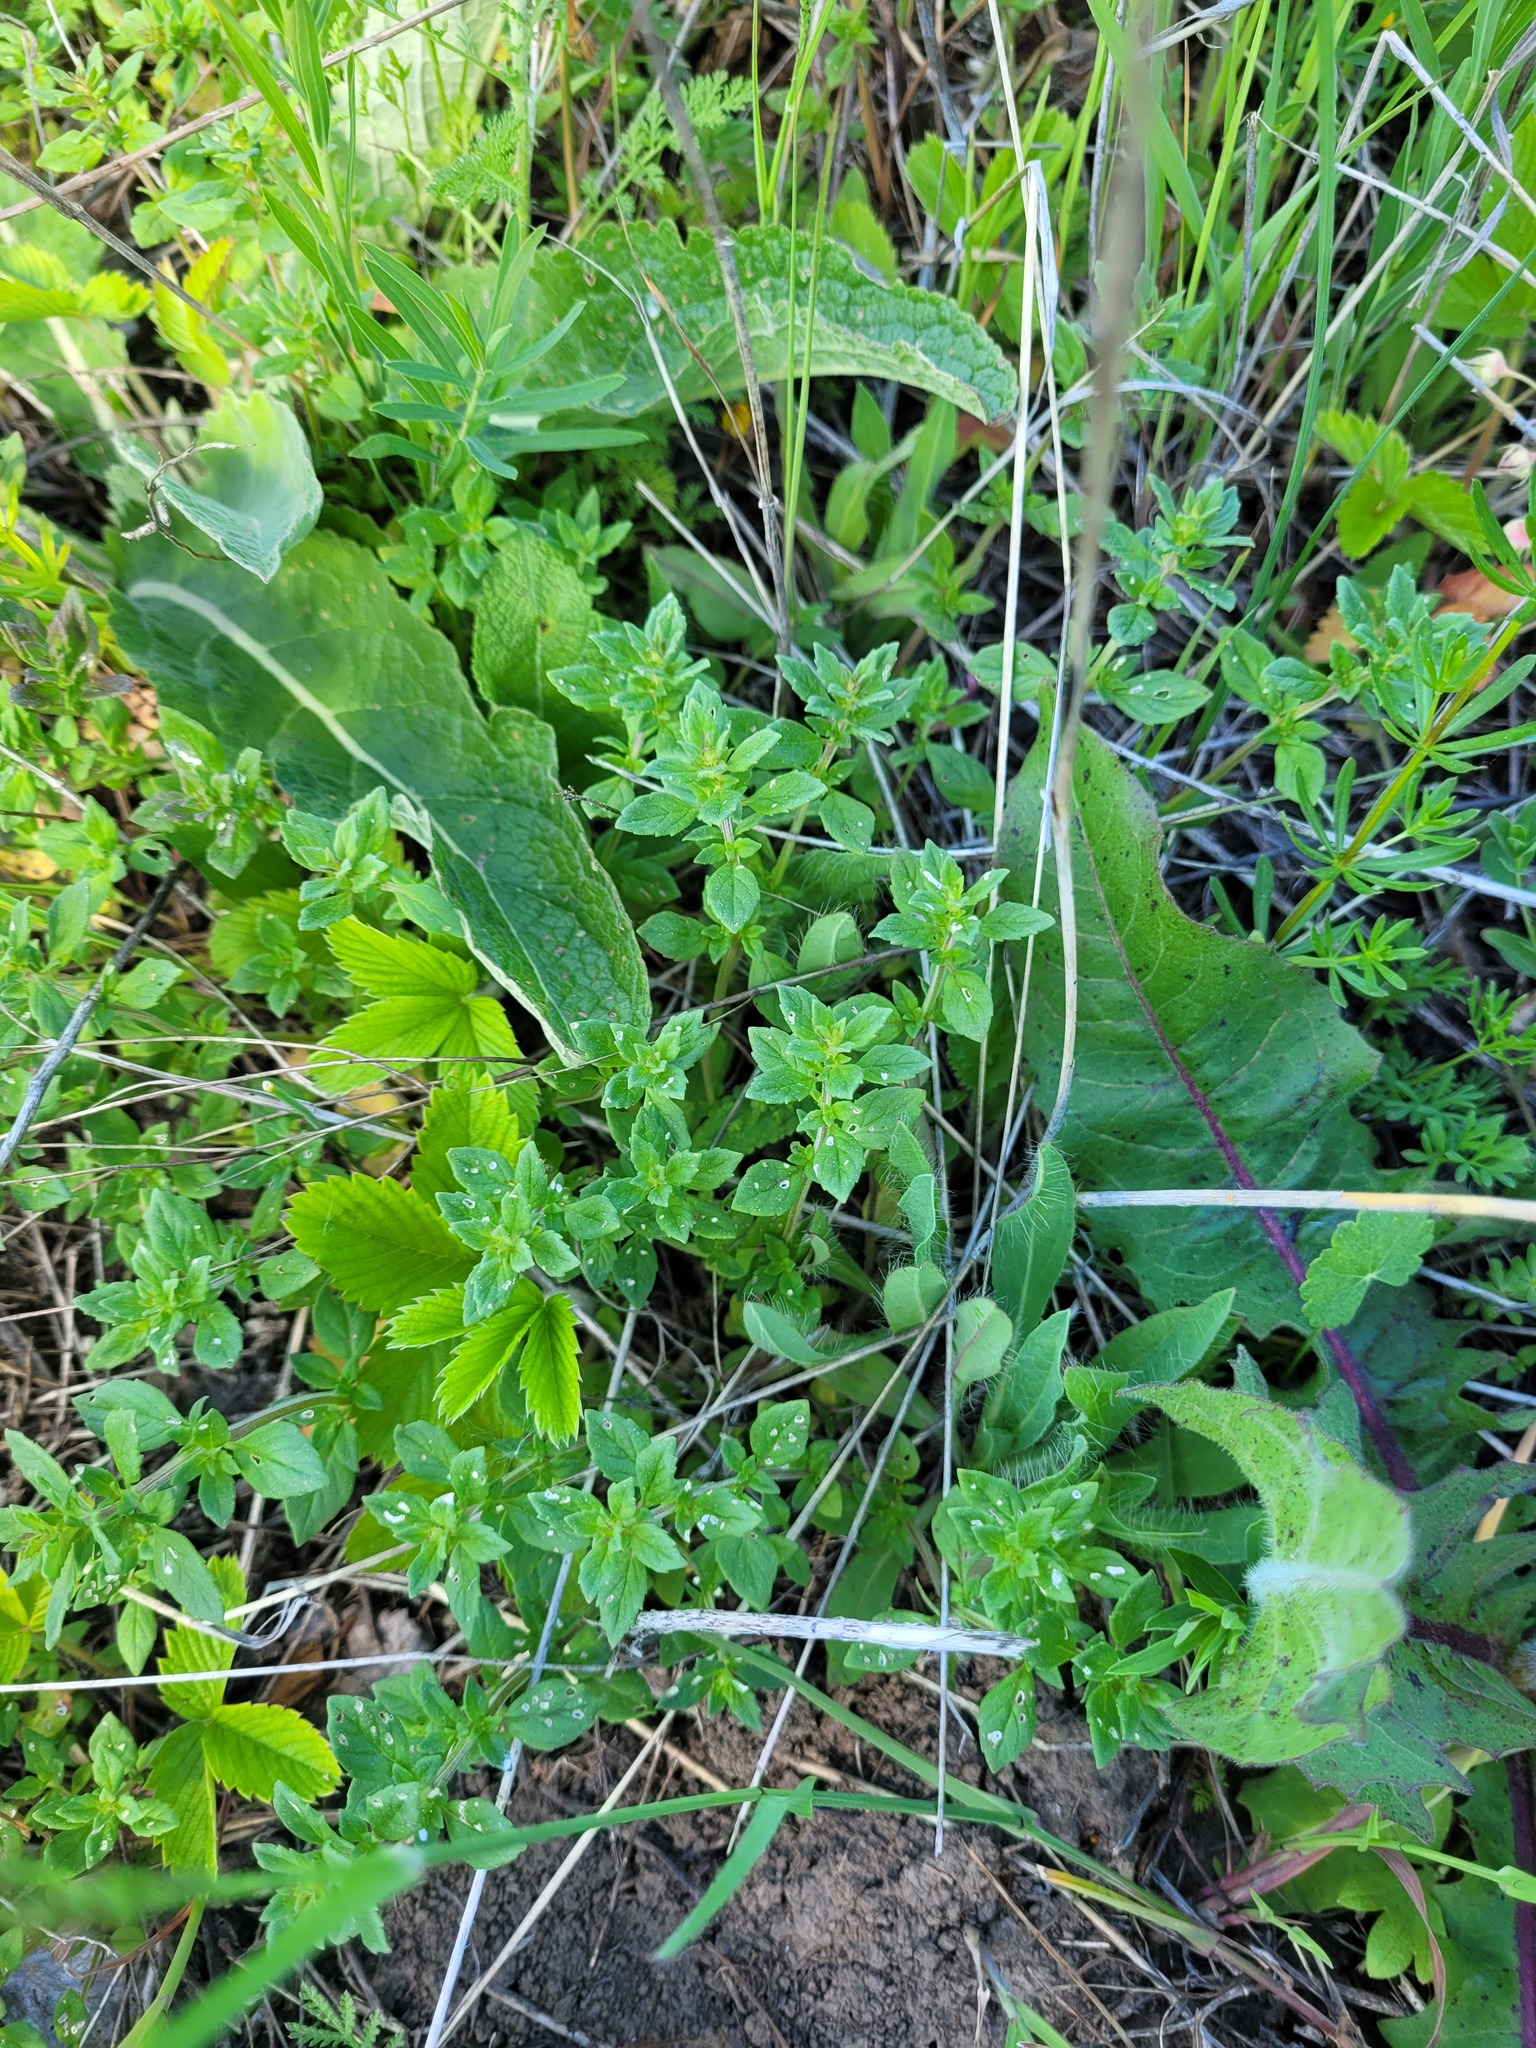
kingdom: Plantae
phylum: Tracheophyta
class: Magnoliopsida
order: Lamiales
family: Lamiaceae
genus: Clinopodium
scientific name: Clinopodium acinos
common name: Basil thyme
